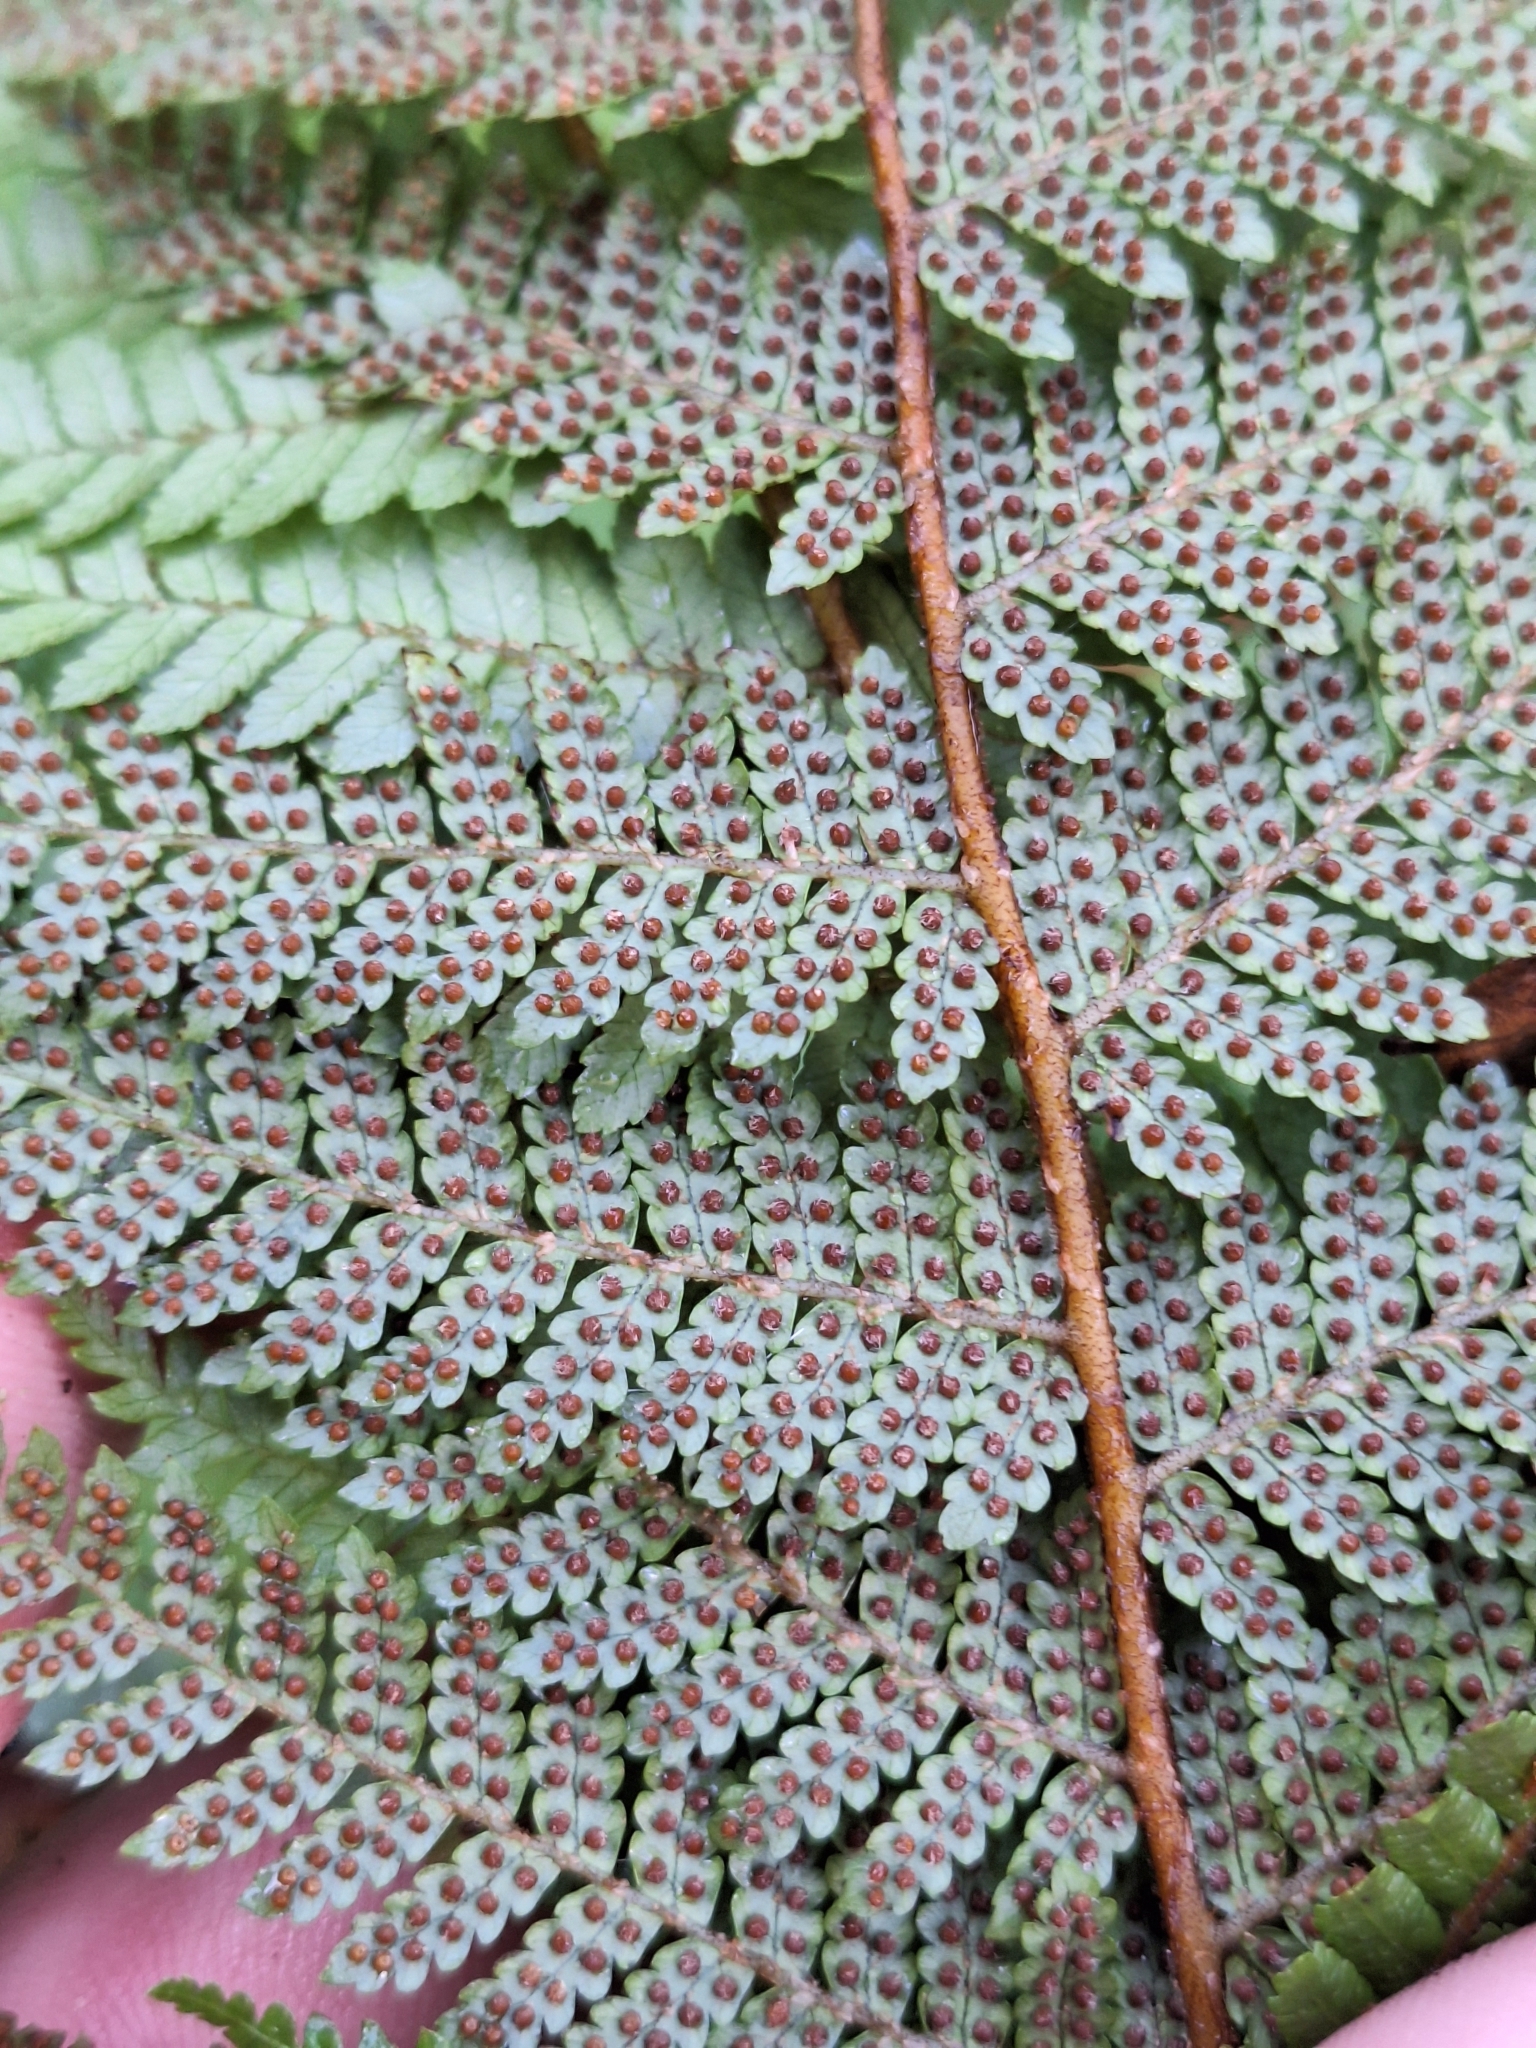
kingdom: Plantae
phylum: Tracheophyta
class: Polypodiopsida
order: Cyatheales
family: Cyatheaceae
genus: Alsophila
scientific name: Alsophila colensoi
